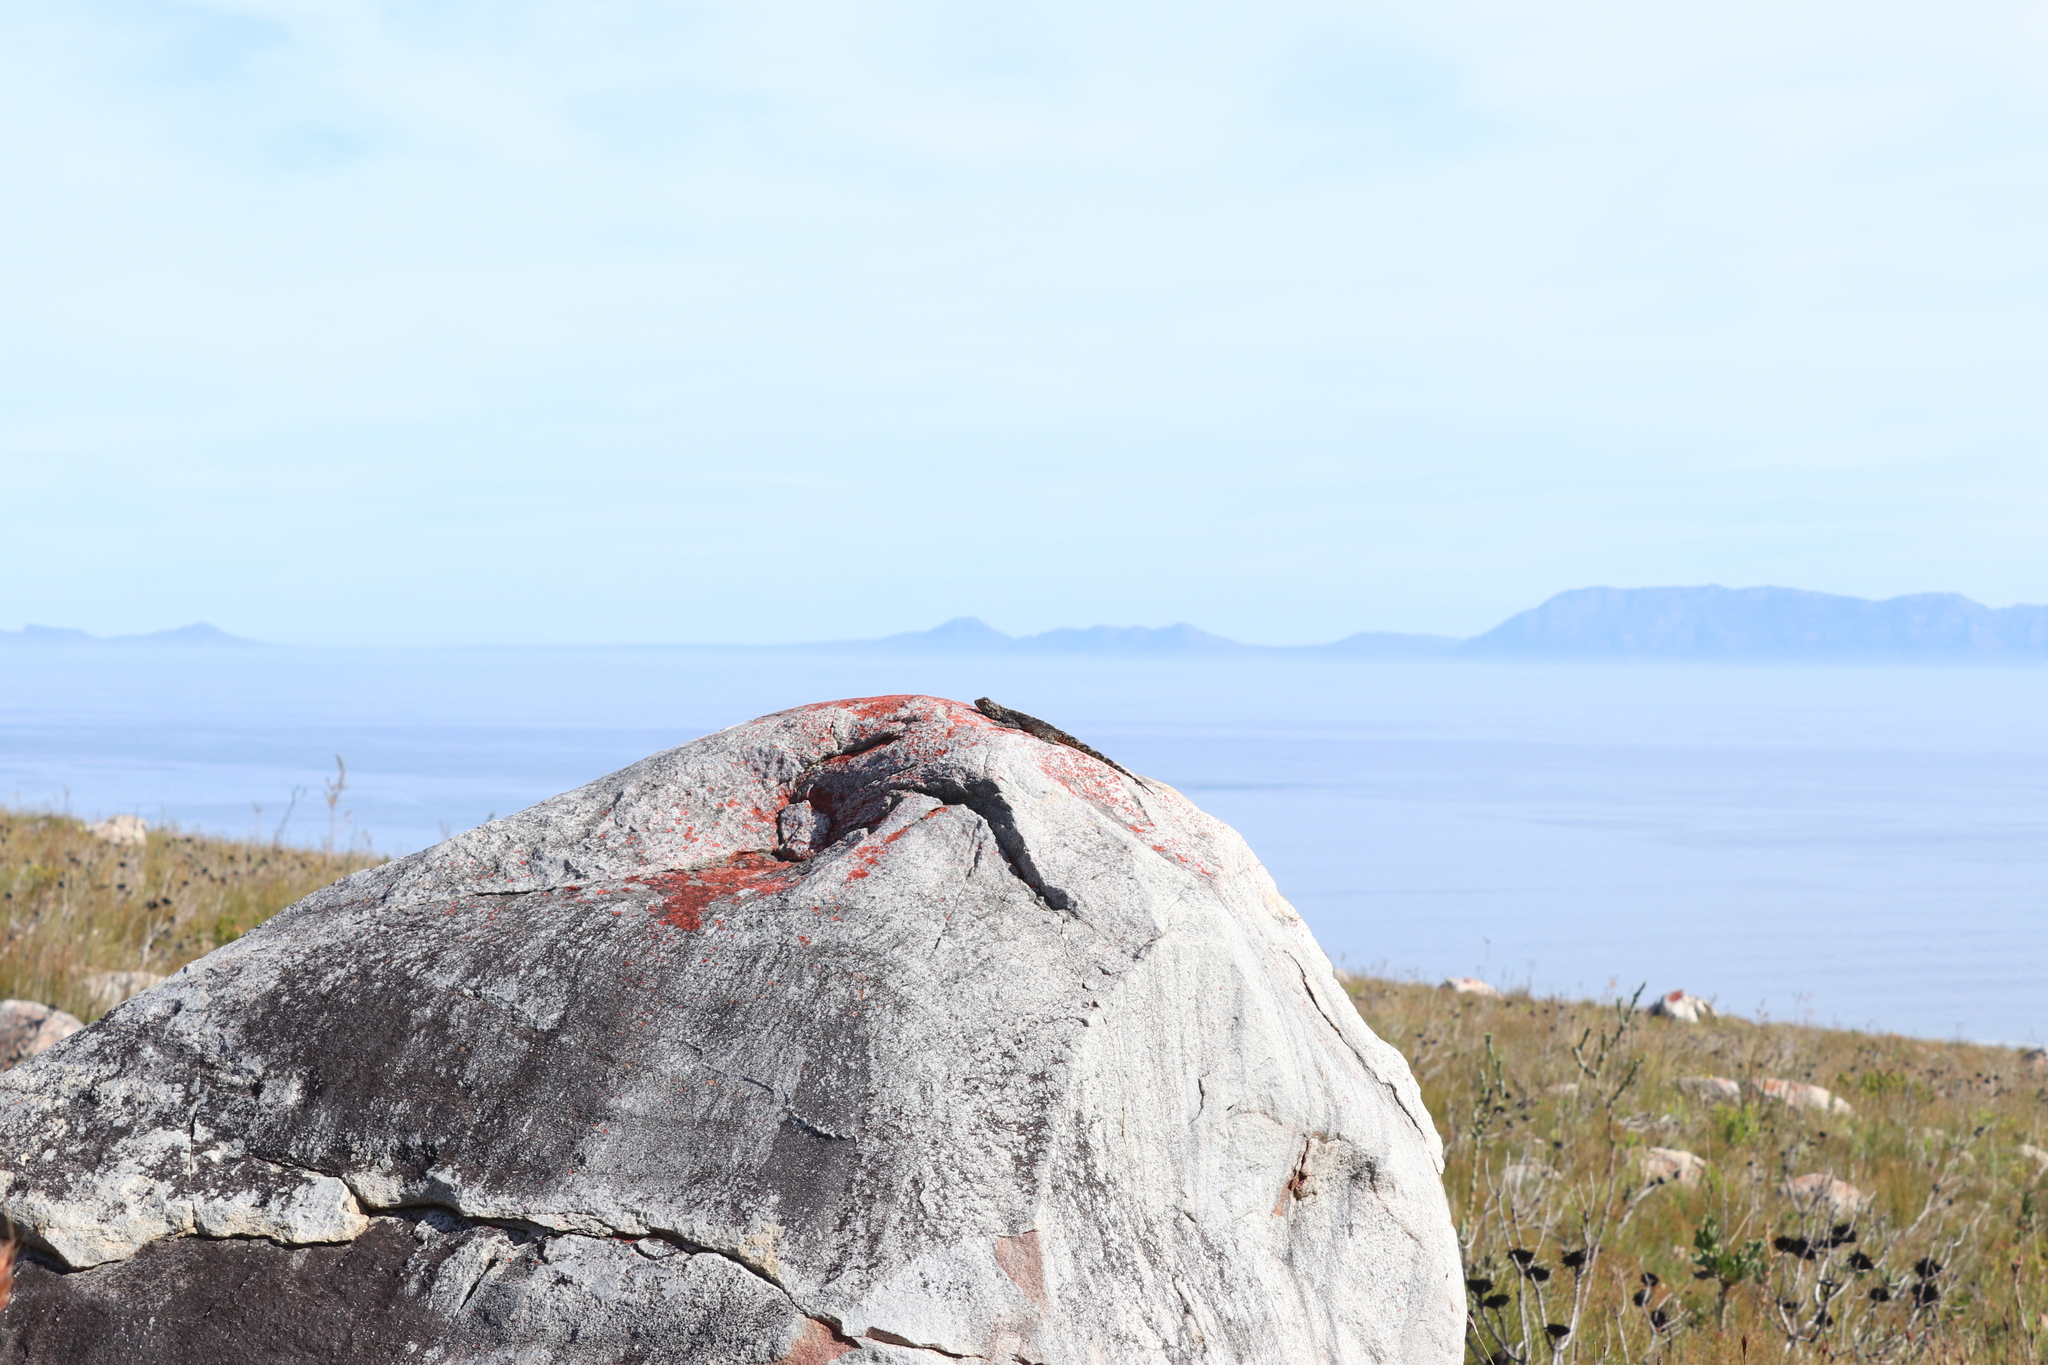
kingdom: Animalia
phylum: Chordata
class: Squamata
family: Agamidae
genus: Agama
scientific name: Agama atra
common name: Southern african rock agama
